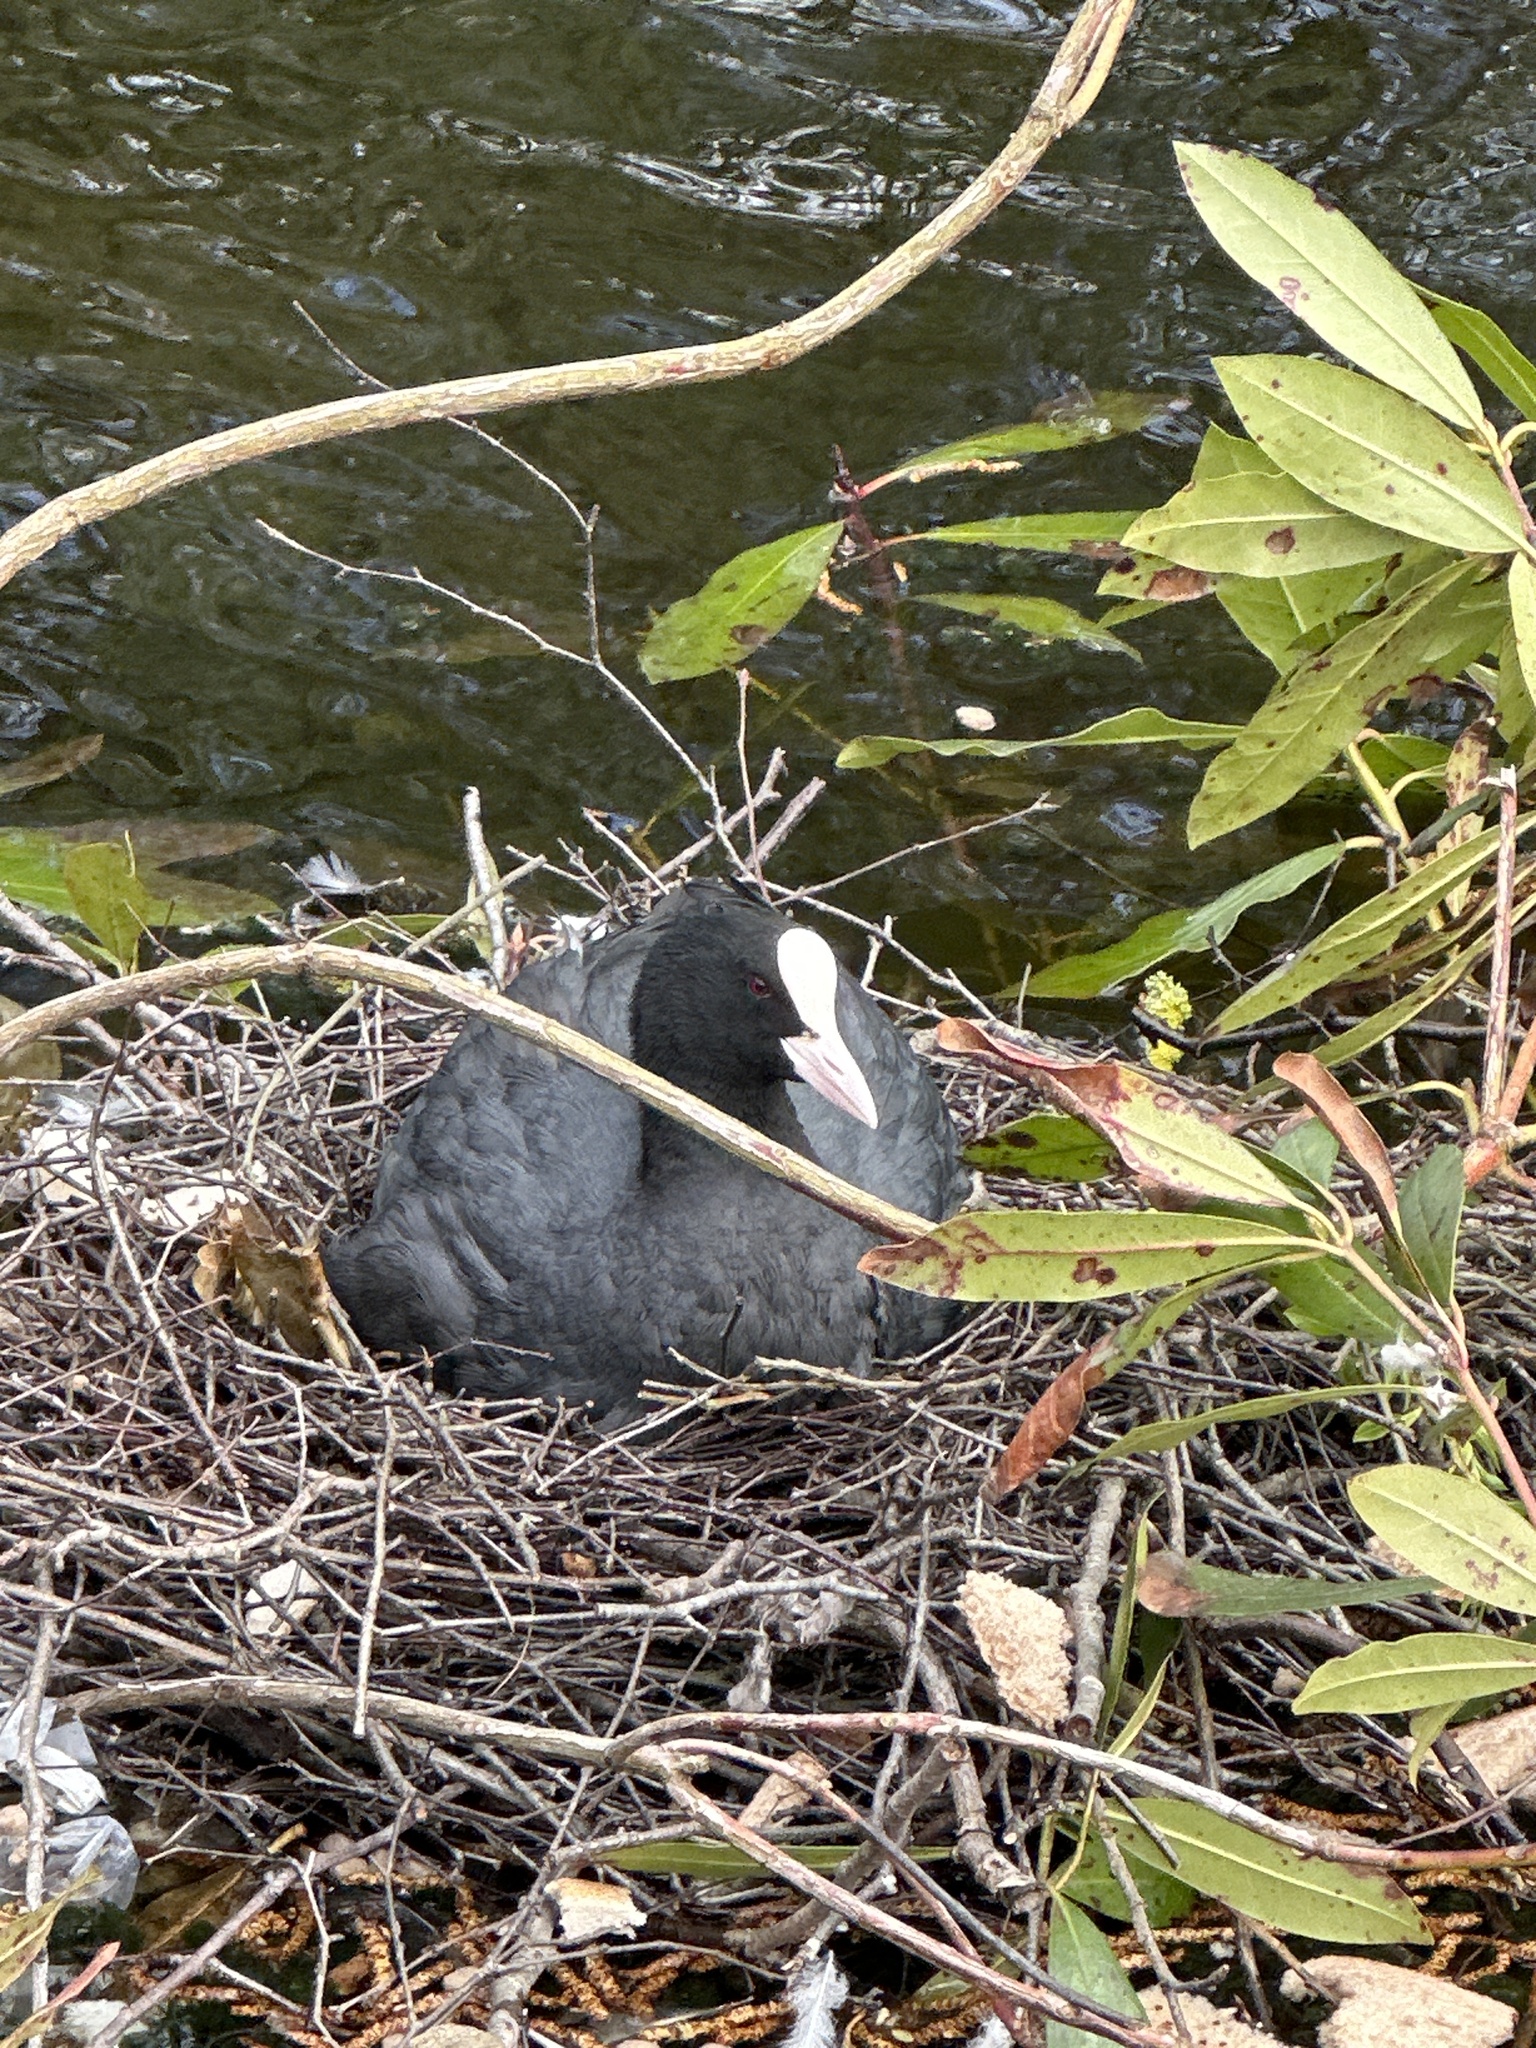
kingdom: Animalia
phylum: Chordata
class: Aves
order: Gruiformes
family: Rallidae
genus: Fulica
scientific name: Fulica atra
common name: Eurasian coot
